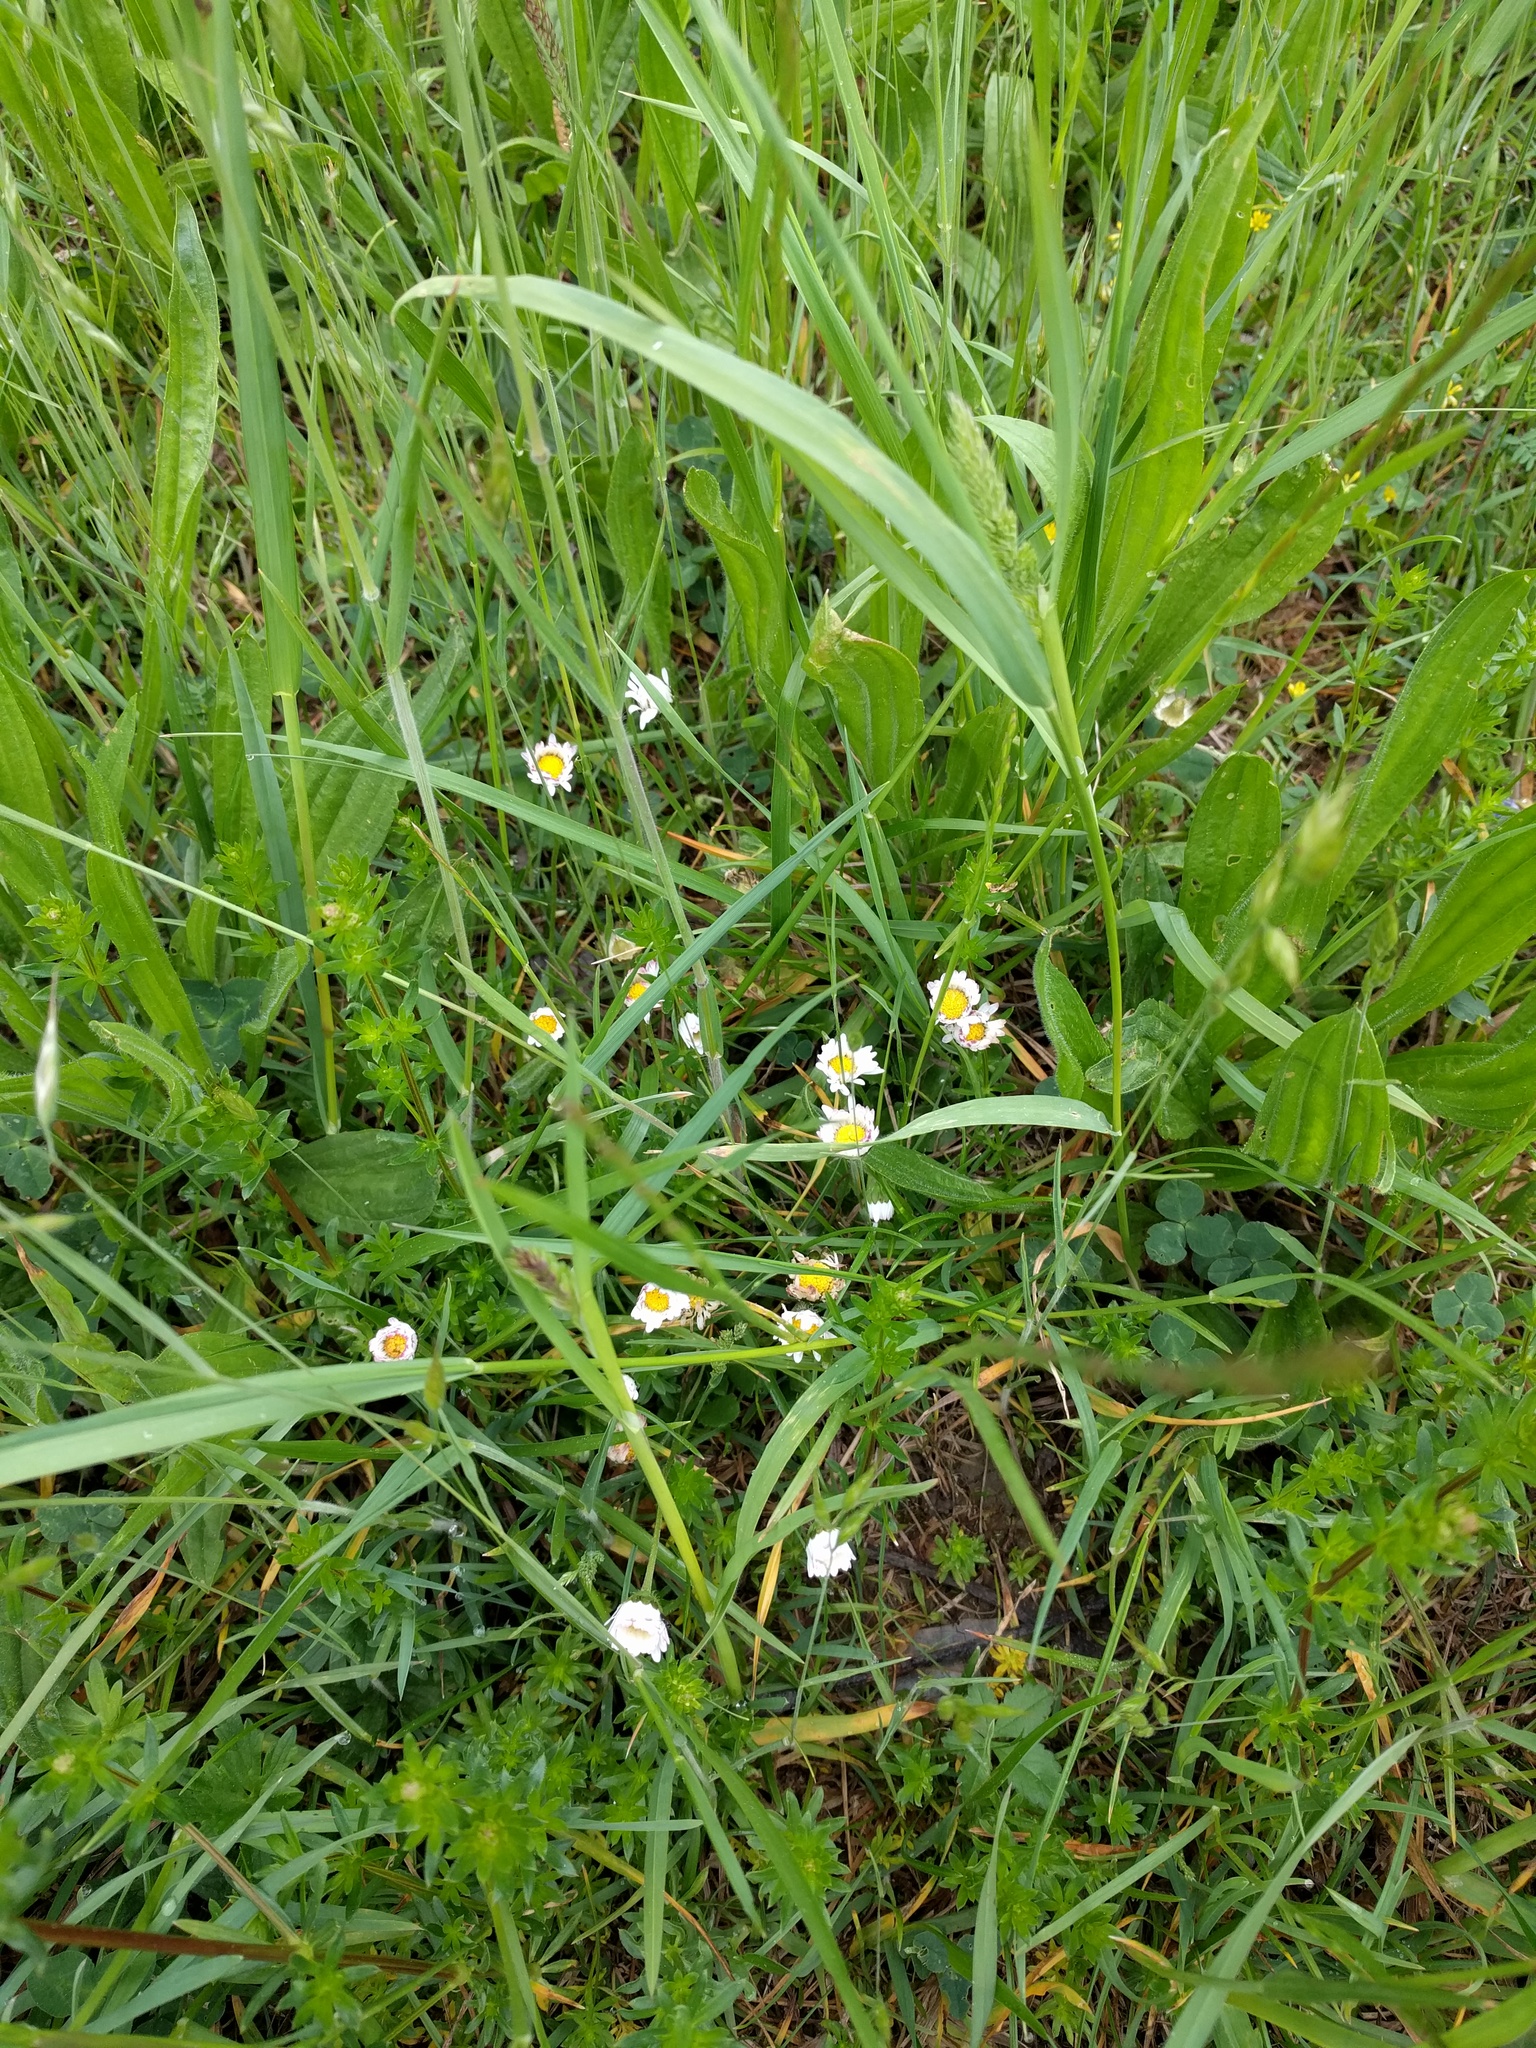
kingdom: Plantae
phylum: Tracheophyta
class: Magnoliopsida
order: Asterales
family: Asteraceae
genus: Bellis
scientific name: Bellis perennis
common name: Lawndaisy
